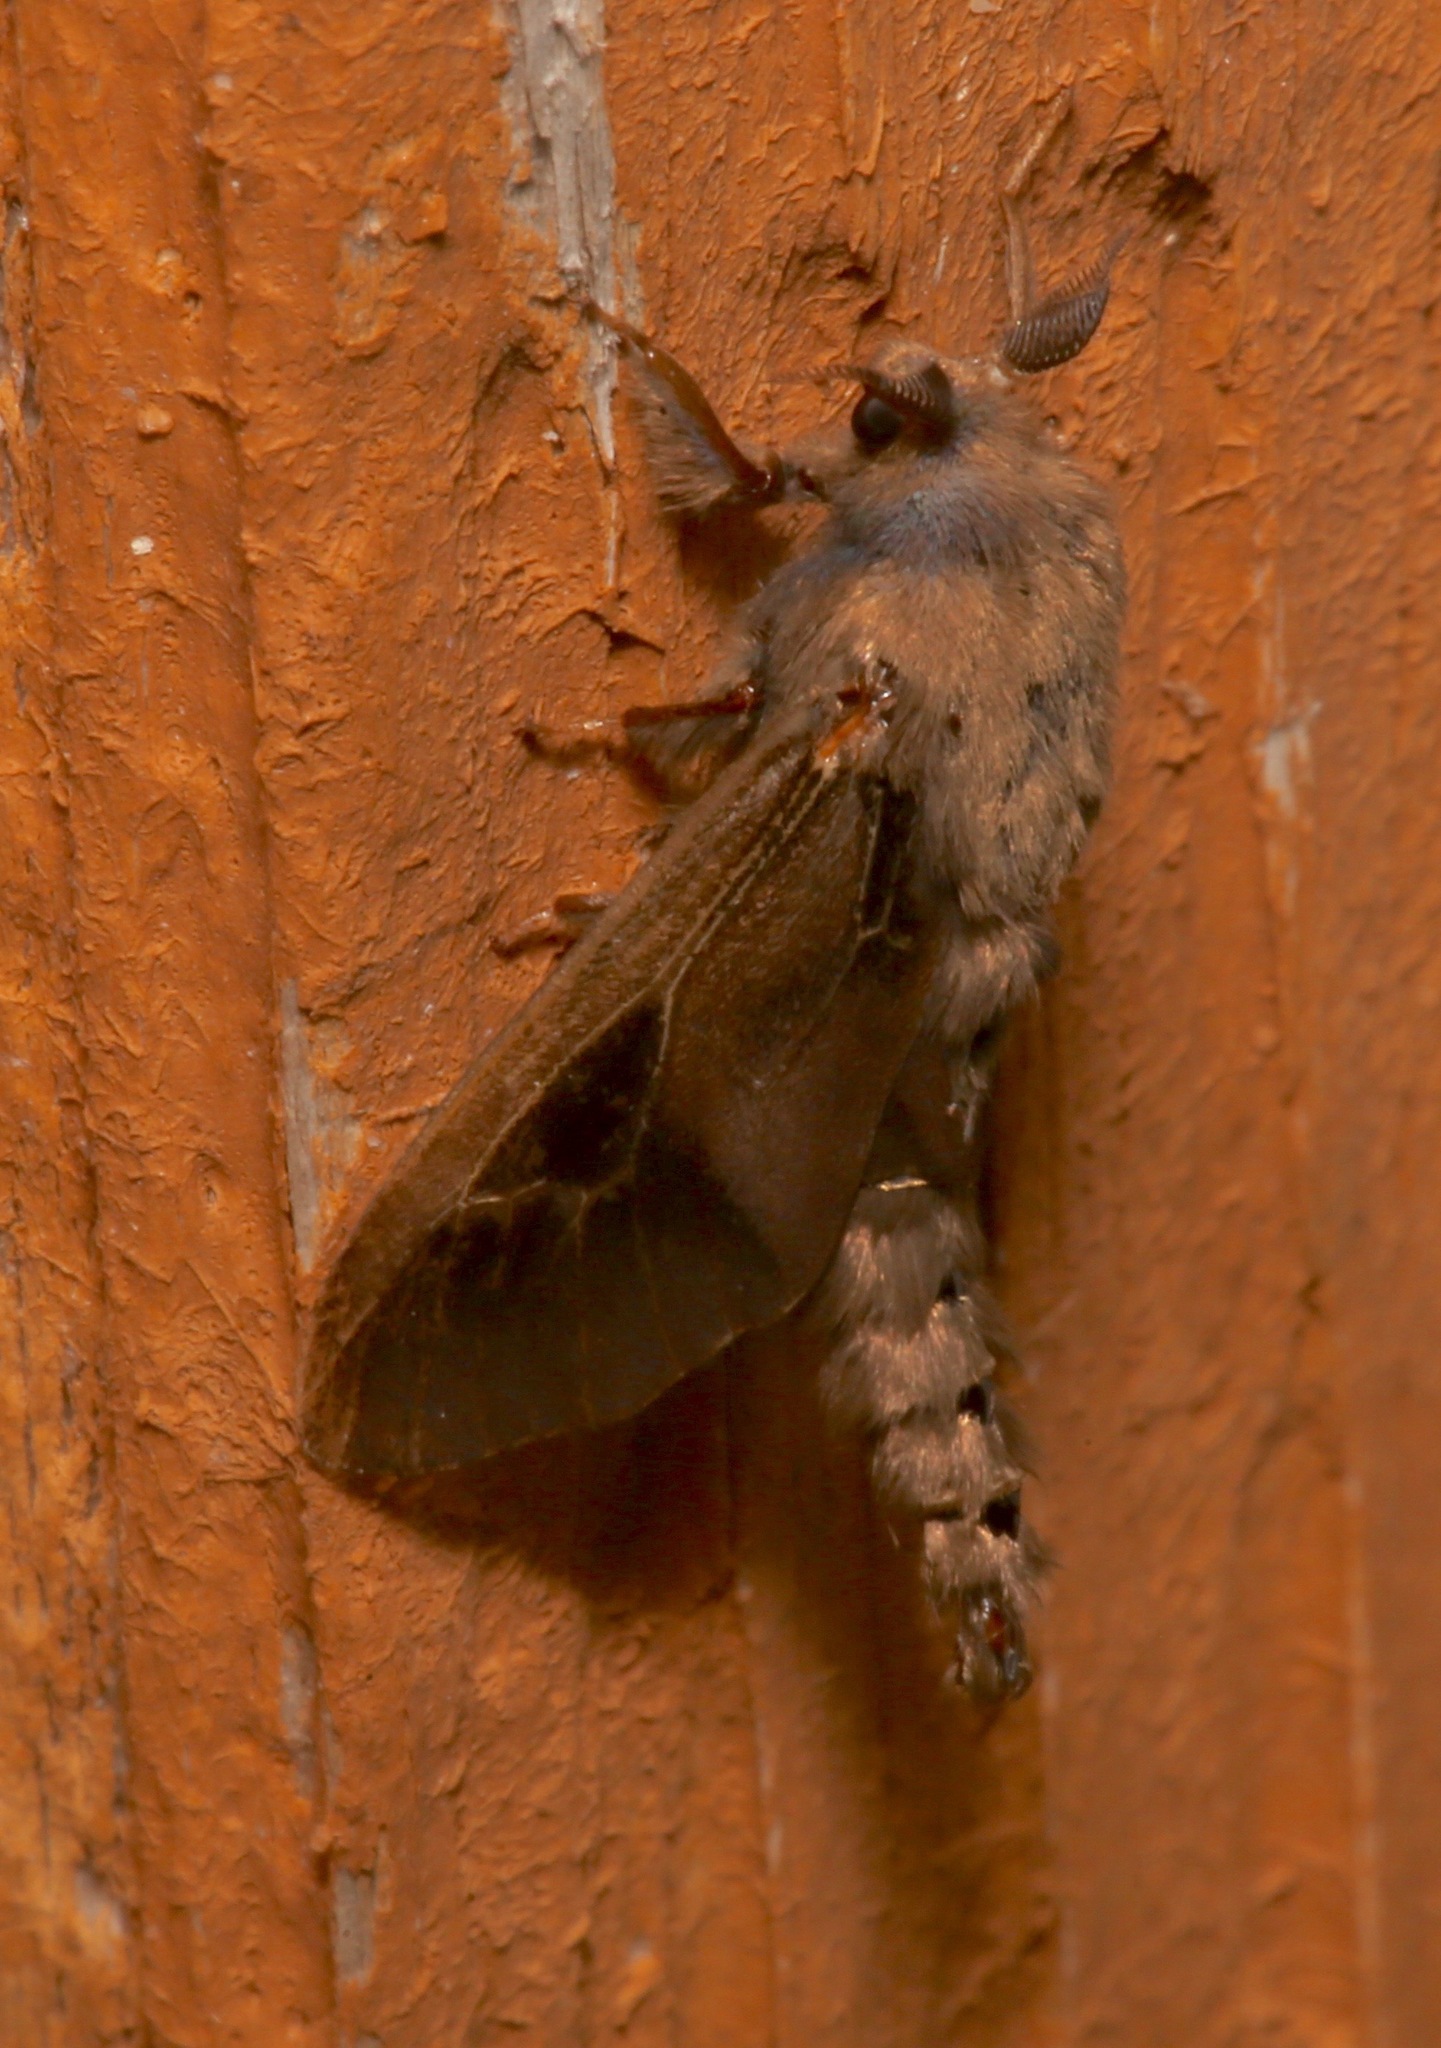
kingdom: Animalia
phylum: Arthropoda
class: Insecta
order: Lepidoptera
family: Psychidae
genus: Oiketicus
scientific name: Oiketicus
